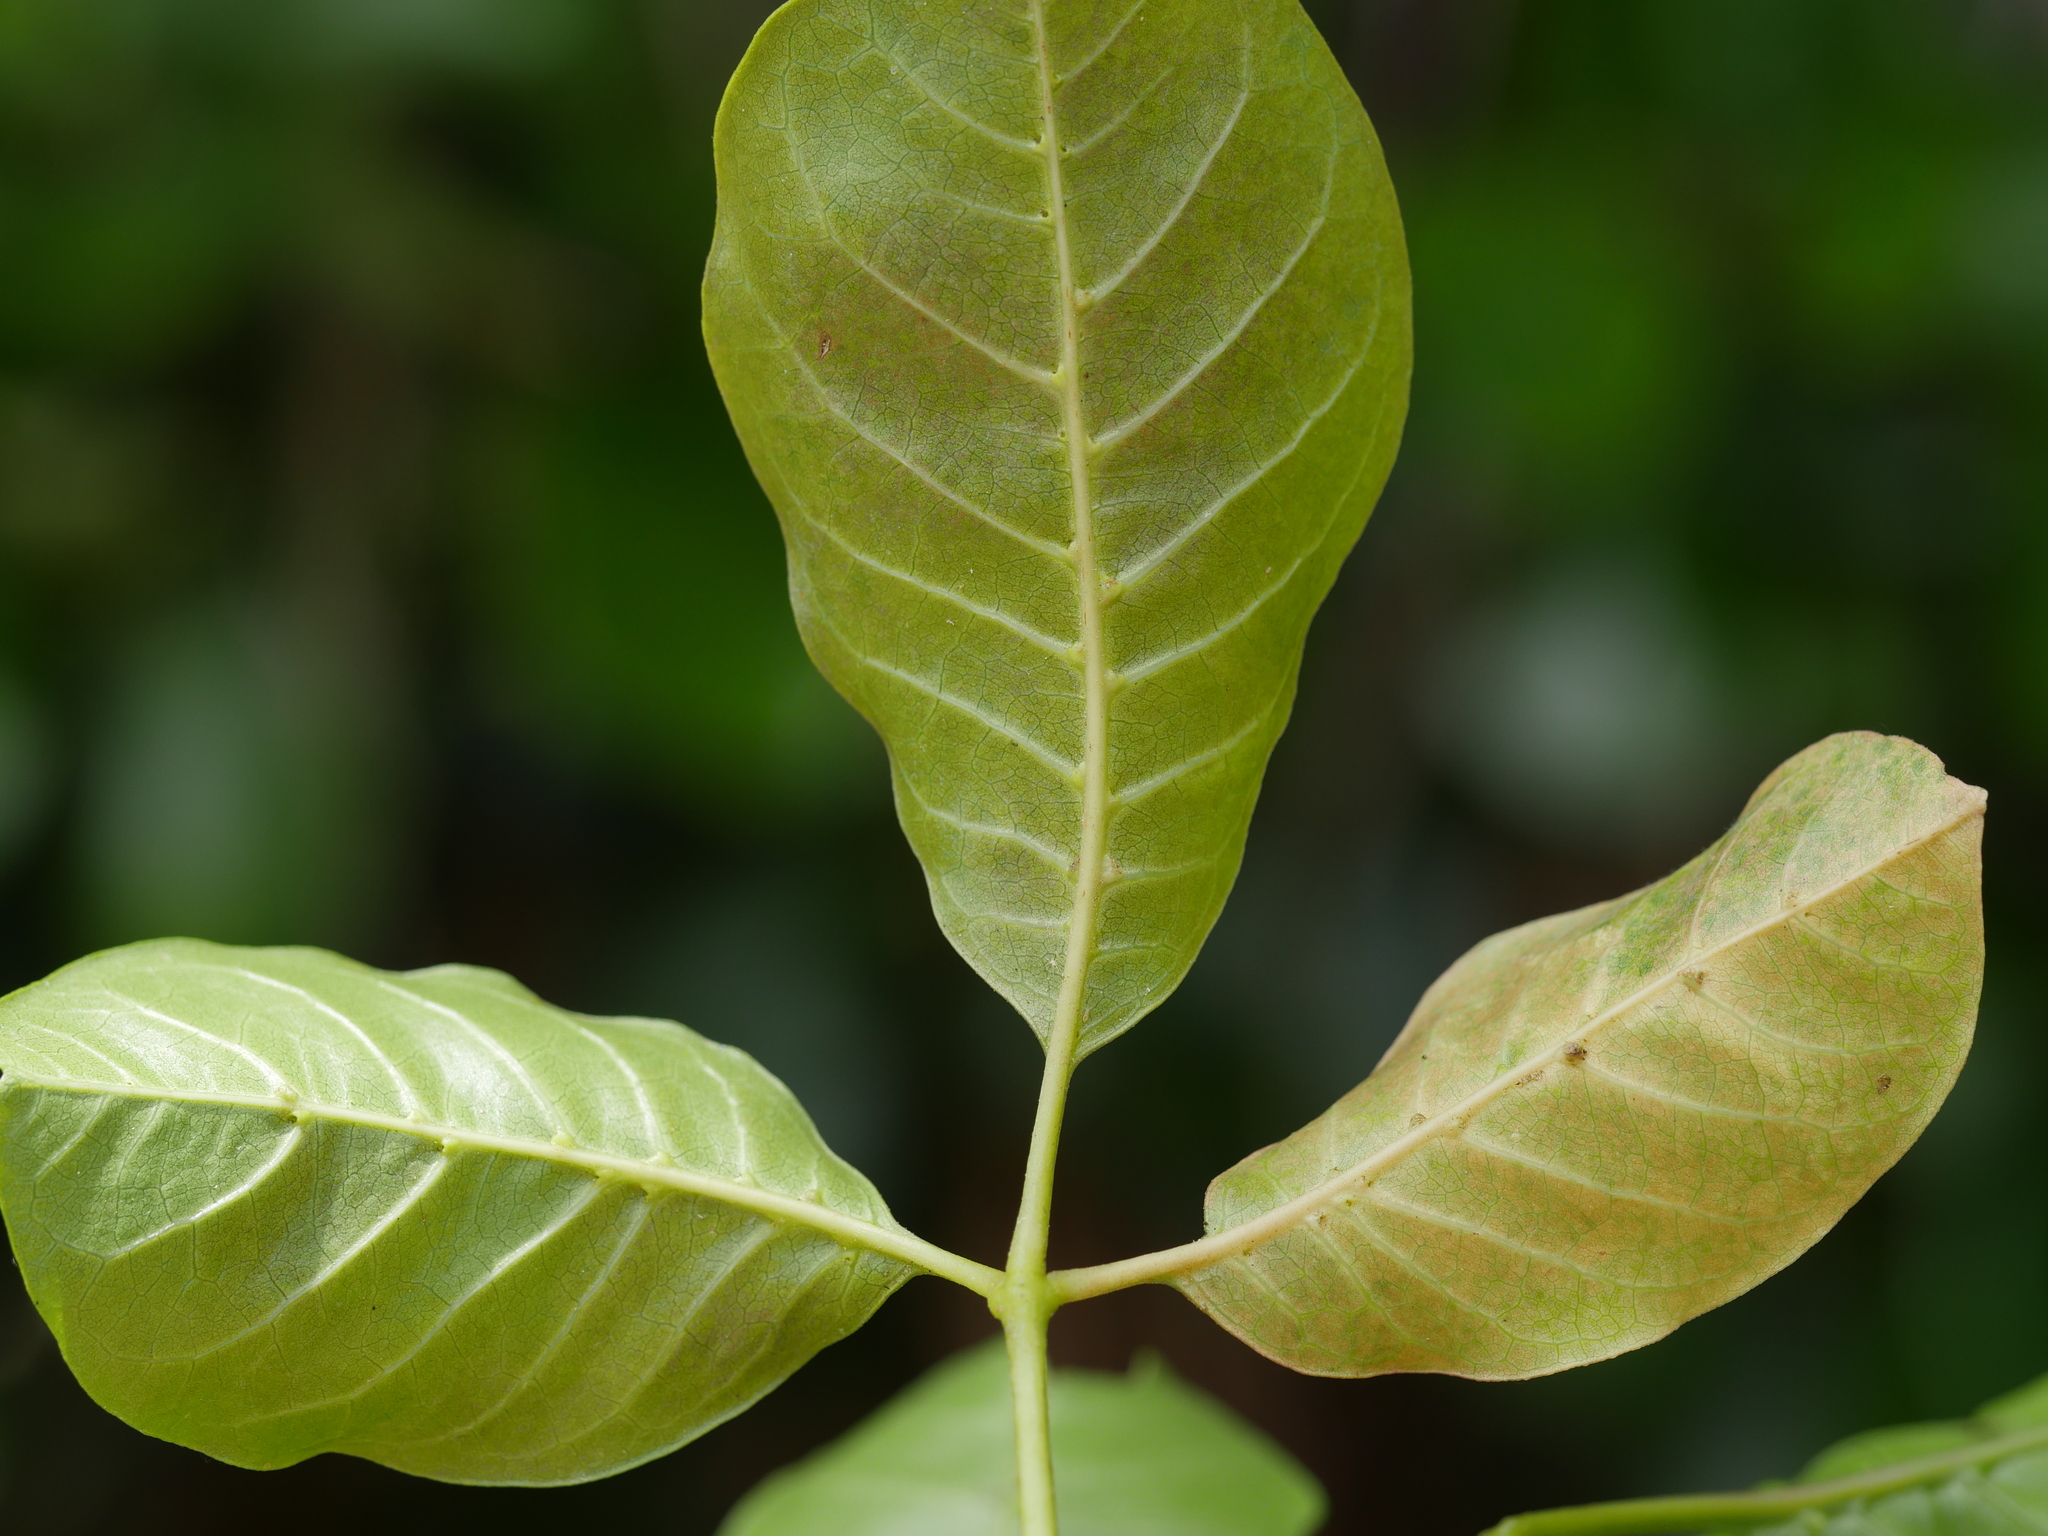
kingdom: Plantae
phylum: Tracheophyta
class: Magnoliopsida
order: Lamiales
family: Lamiaceae
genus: Vitex
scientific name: Vitex lucens
